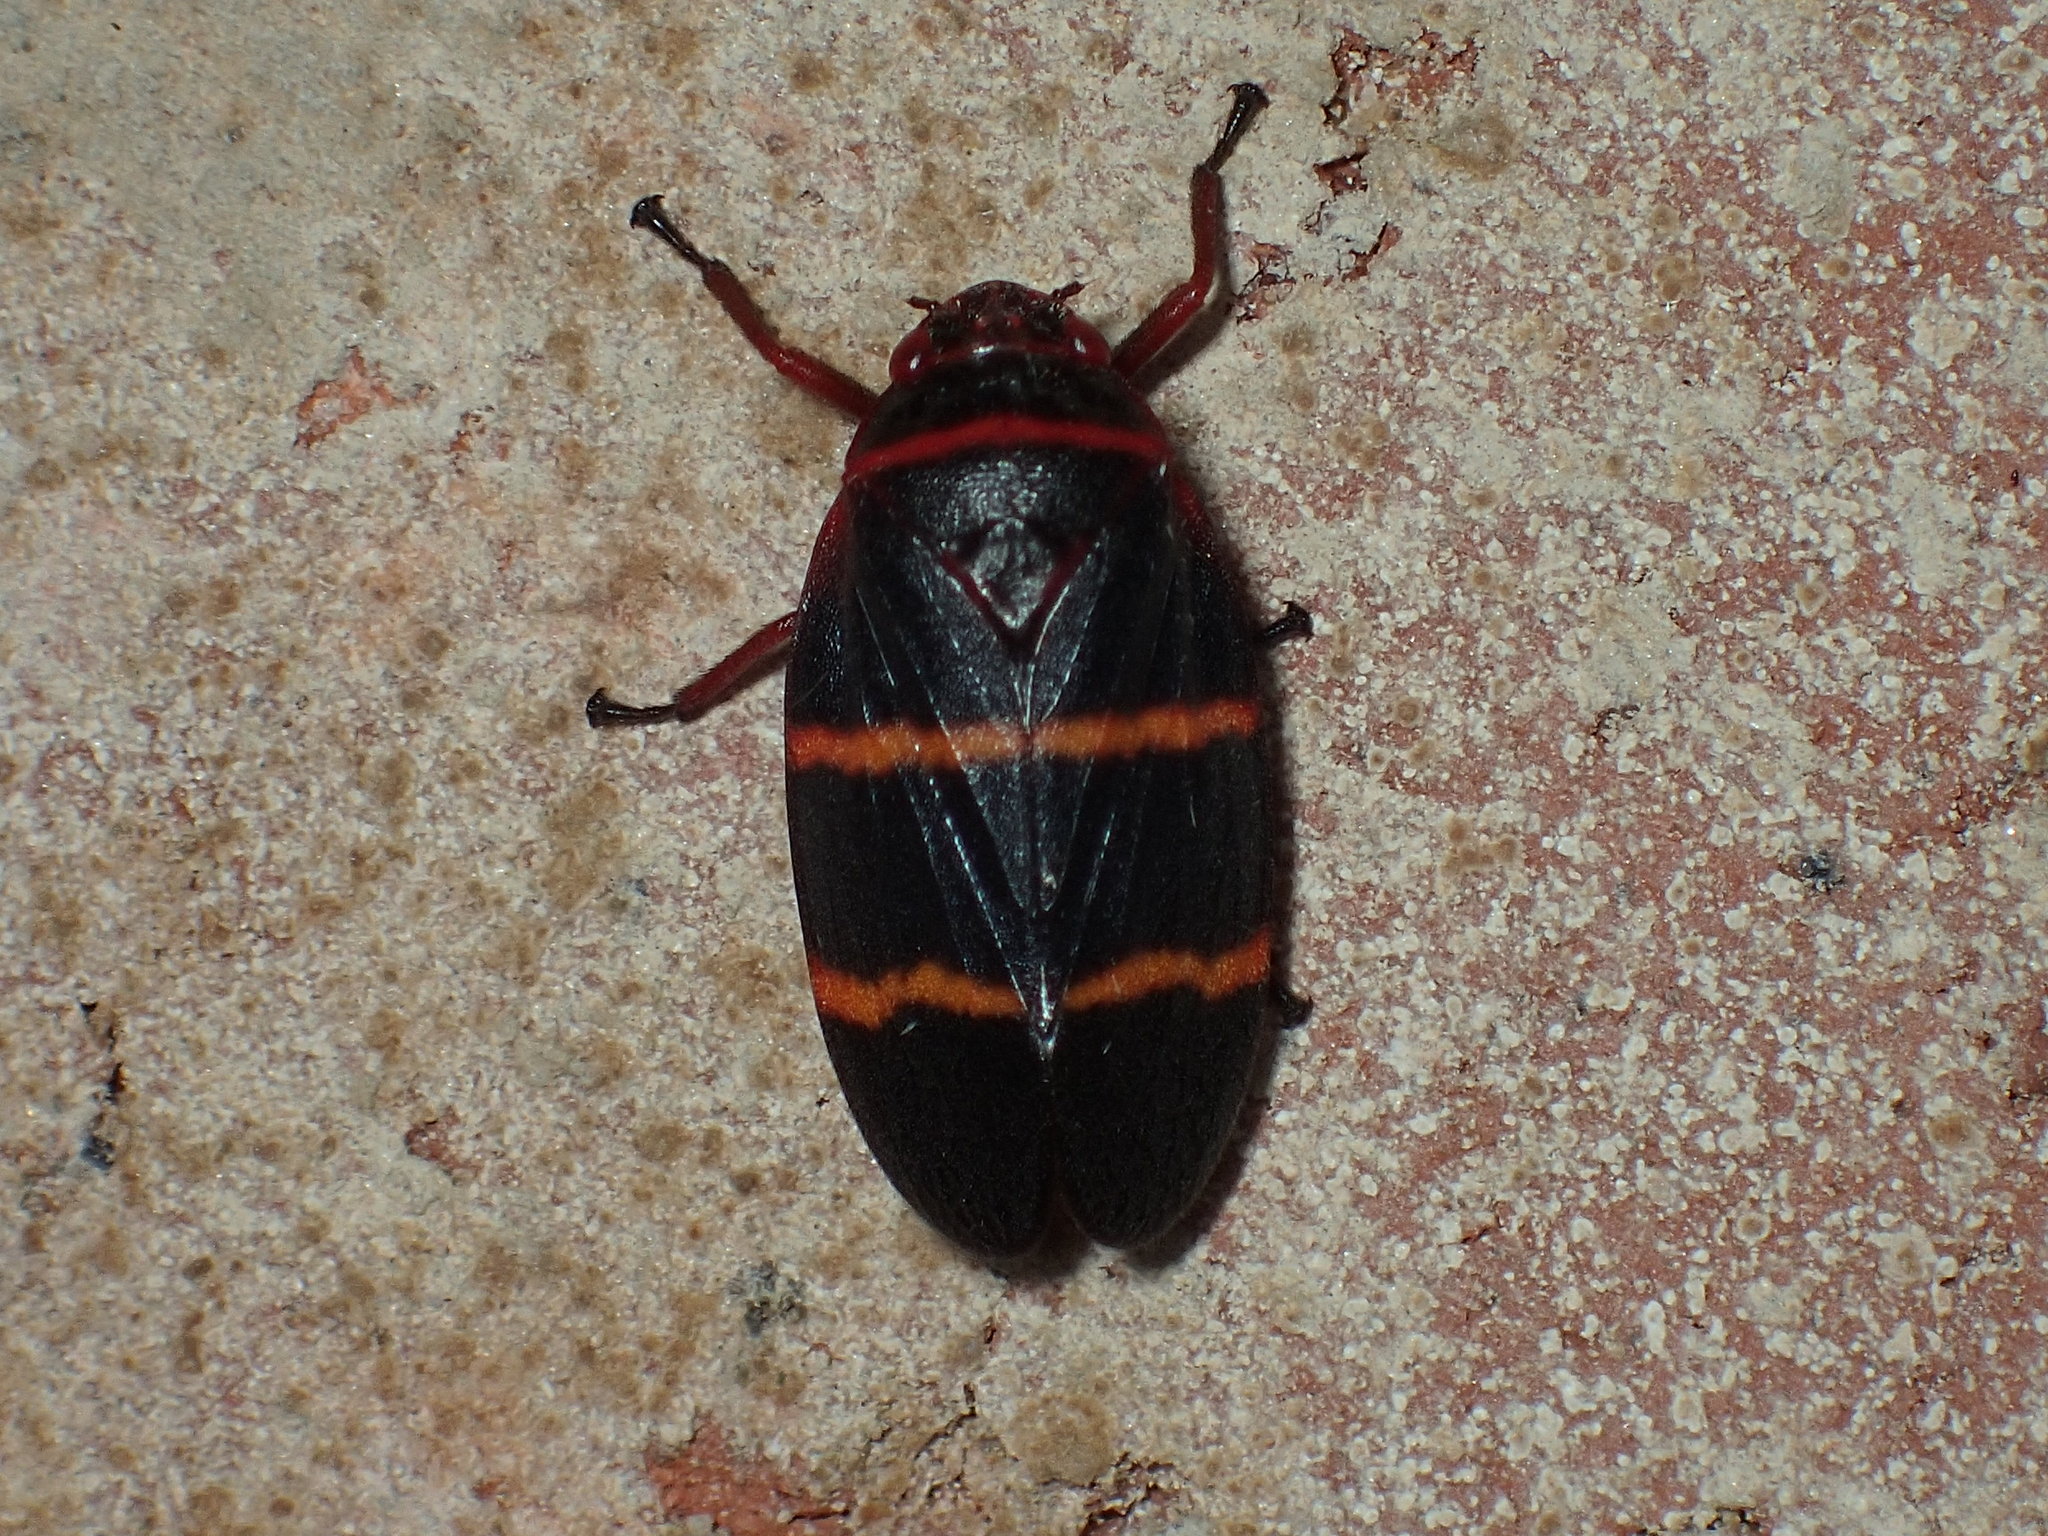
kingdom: Animalia
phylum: Arthropoda
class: Insecta
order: Hemiptera
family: Cercopidae
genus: Prosapia
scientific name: Prosapia bicincta
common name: Twolined spittlebug
